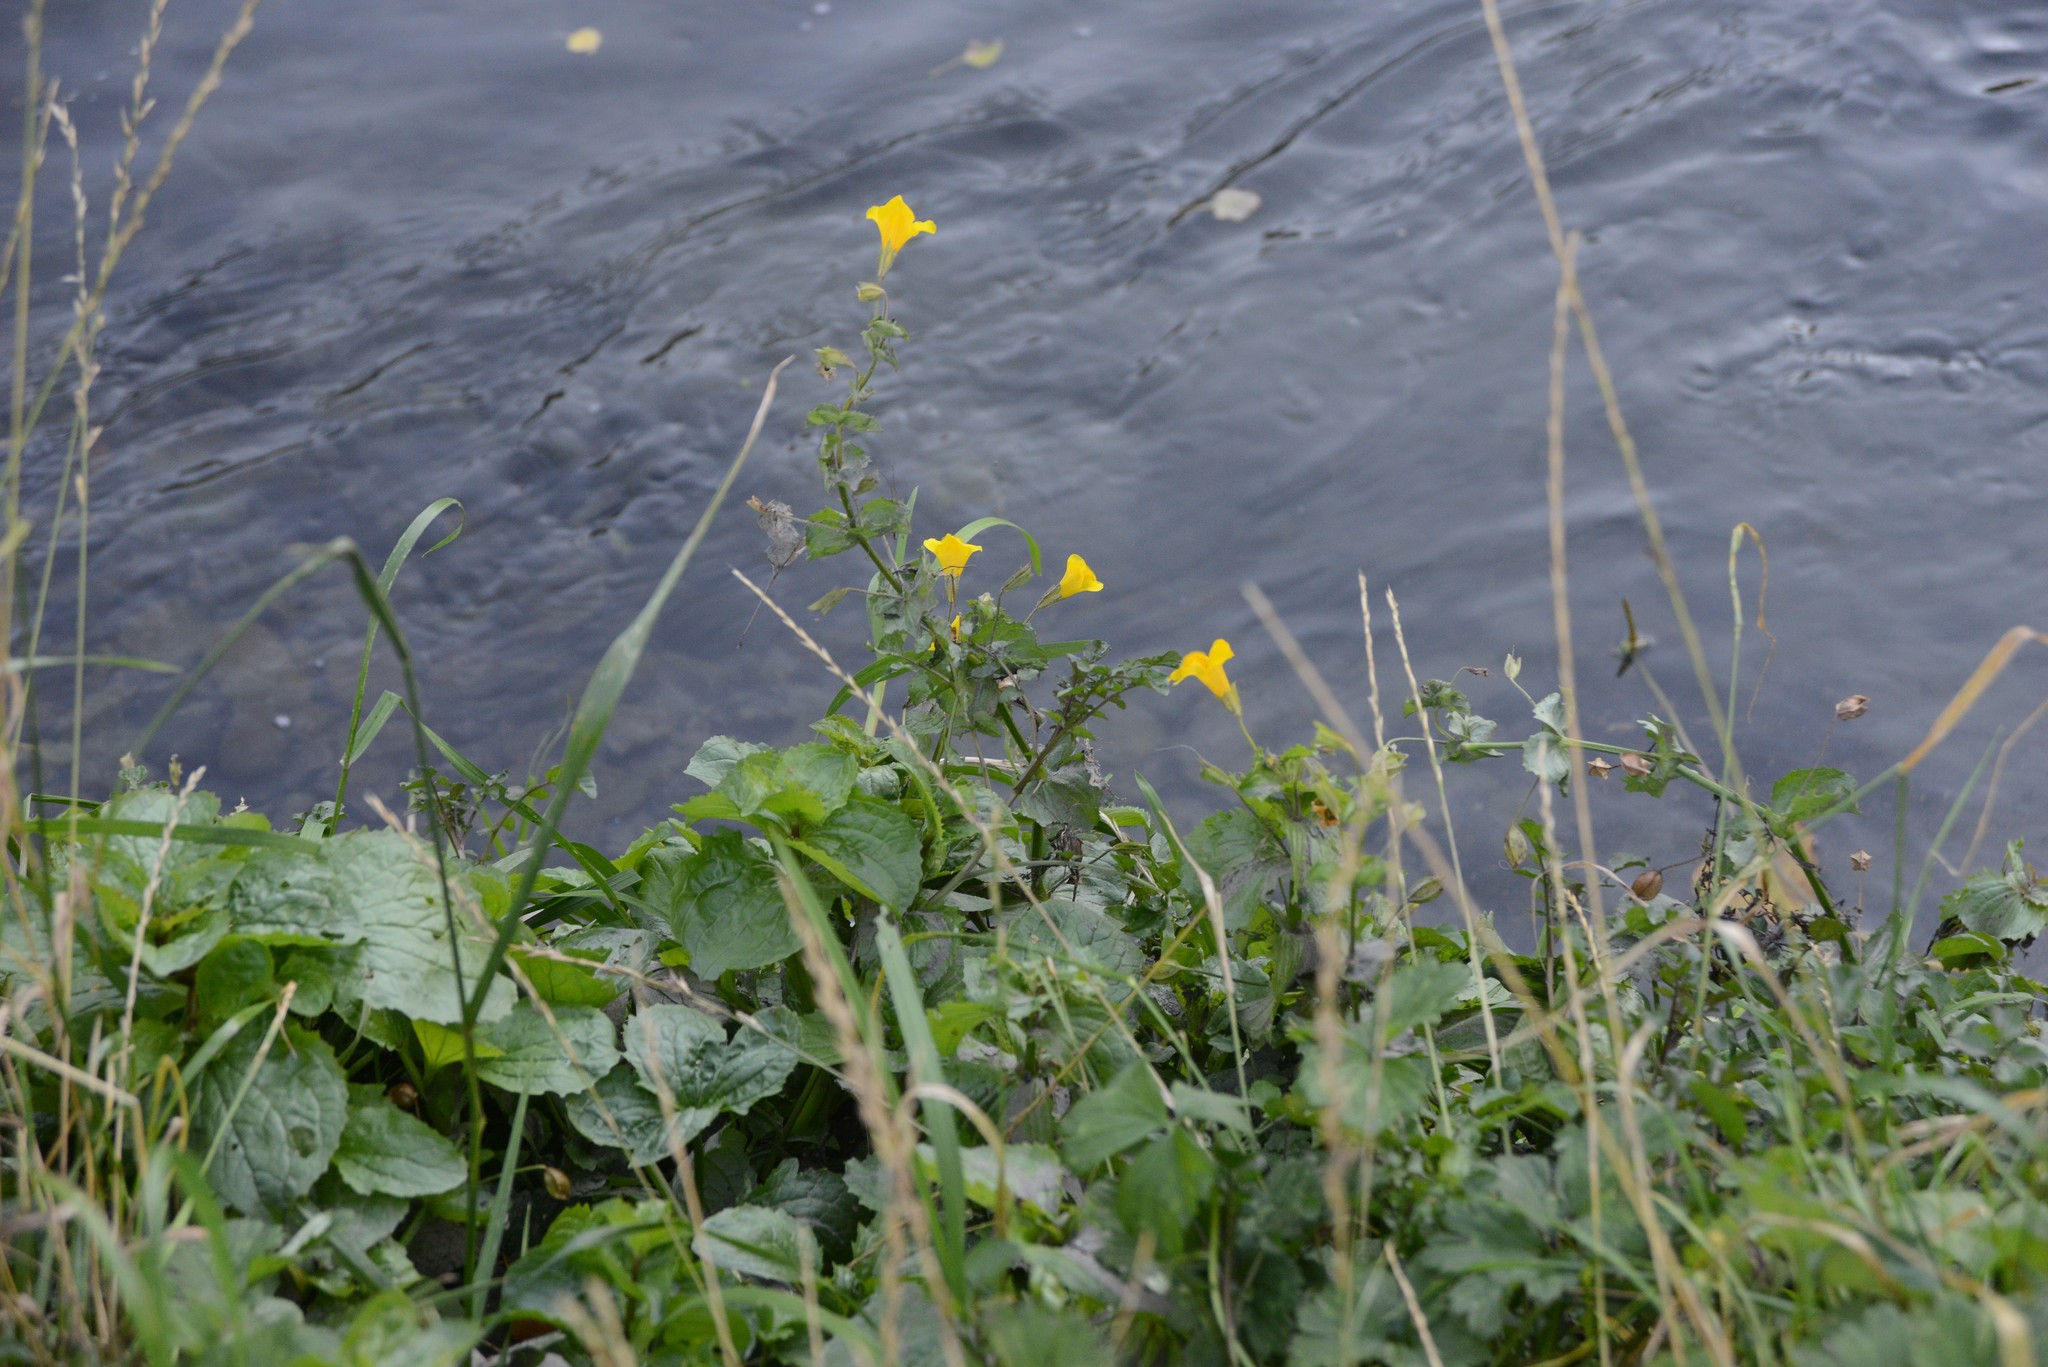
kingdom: Plantae
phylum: Tracheophyta
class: Magnoliopsida
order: Lamiales
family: Phrymaceae
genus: Erythranthe
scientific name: Erythranthe guttata
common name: Monkeyflower
